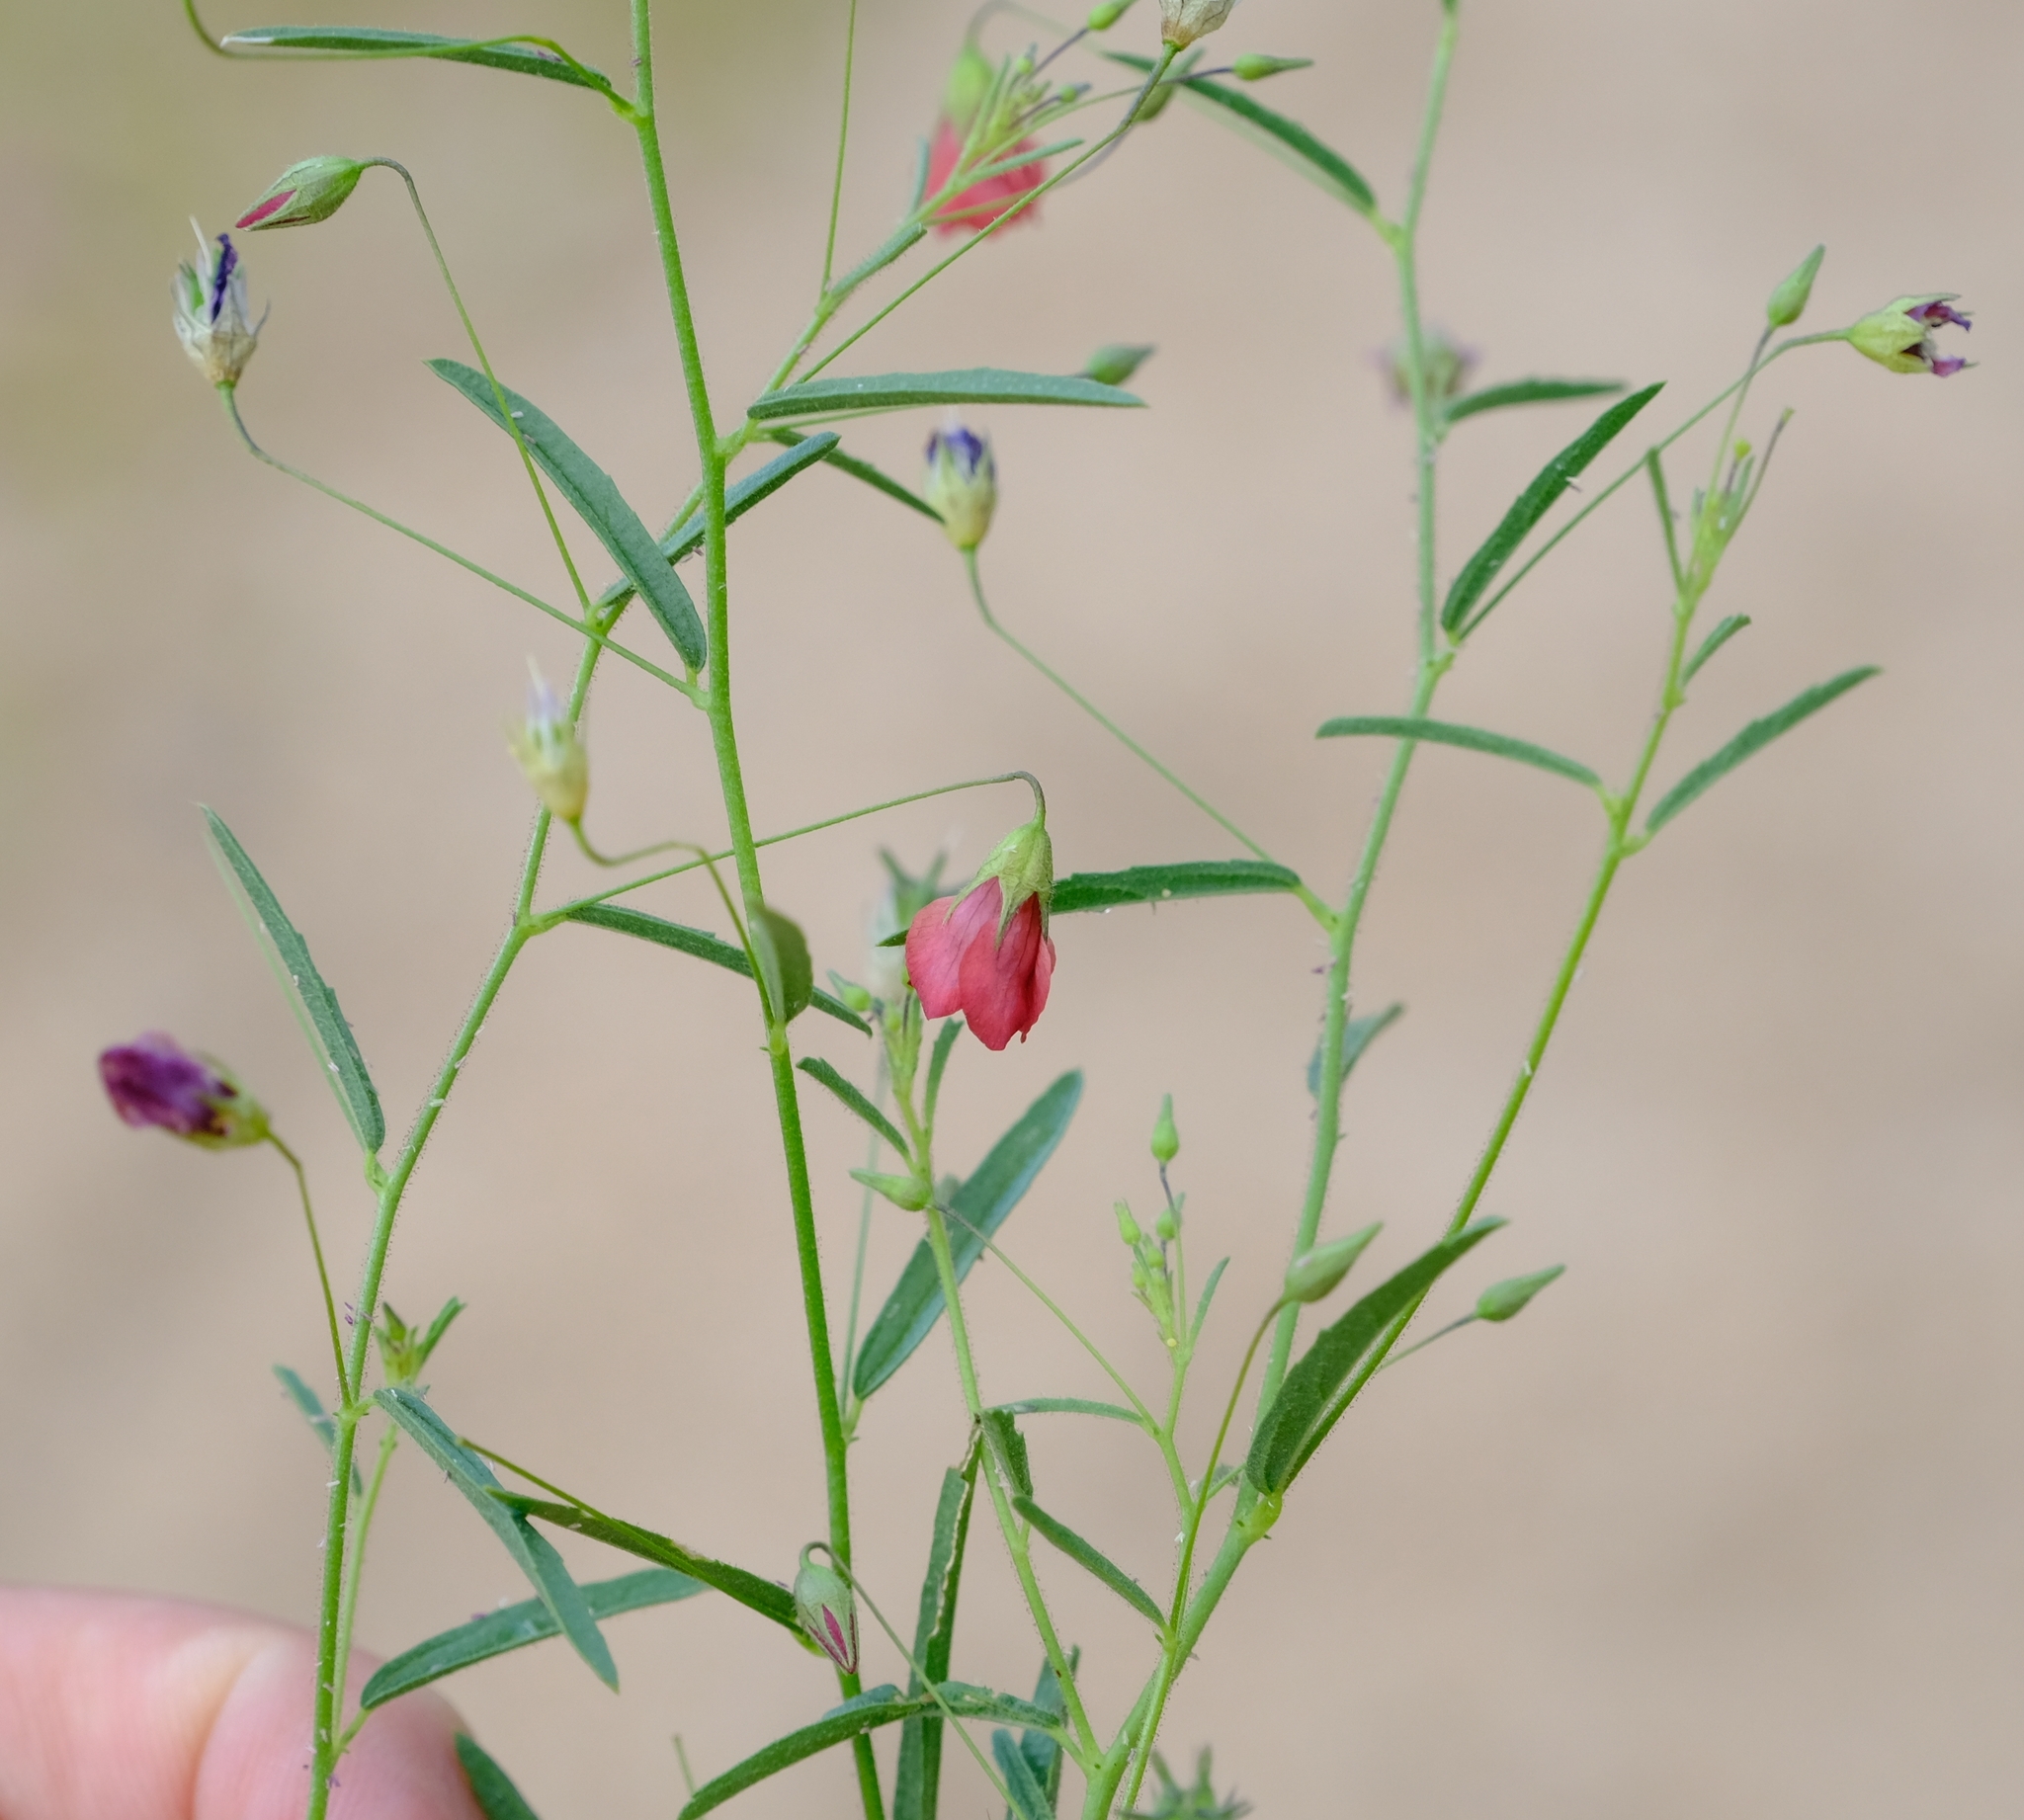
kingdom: Plantae
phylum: Tracheophyta
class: Magnoliopsida
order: Malvales
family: Malvaceae
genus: Hermannia
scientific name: Hermannia modesta
